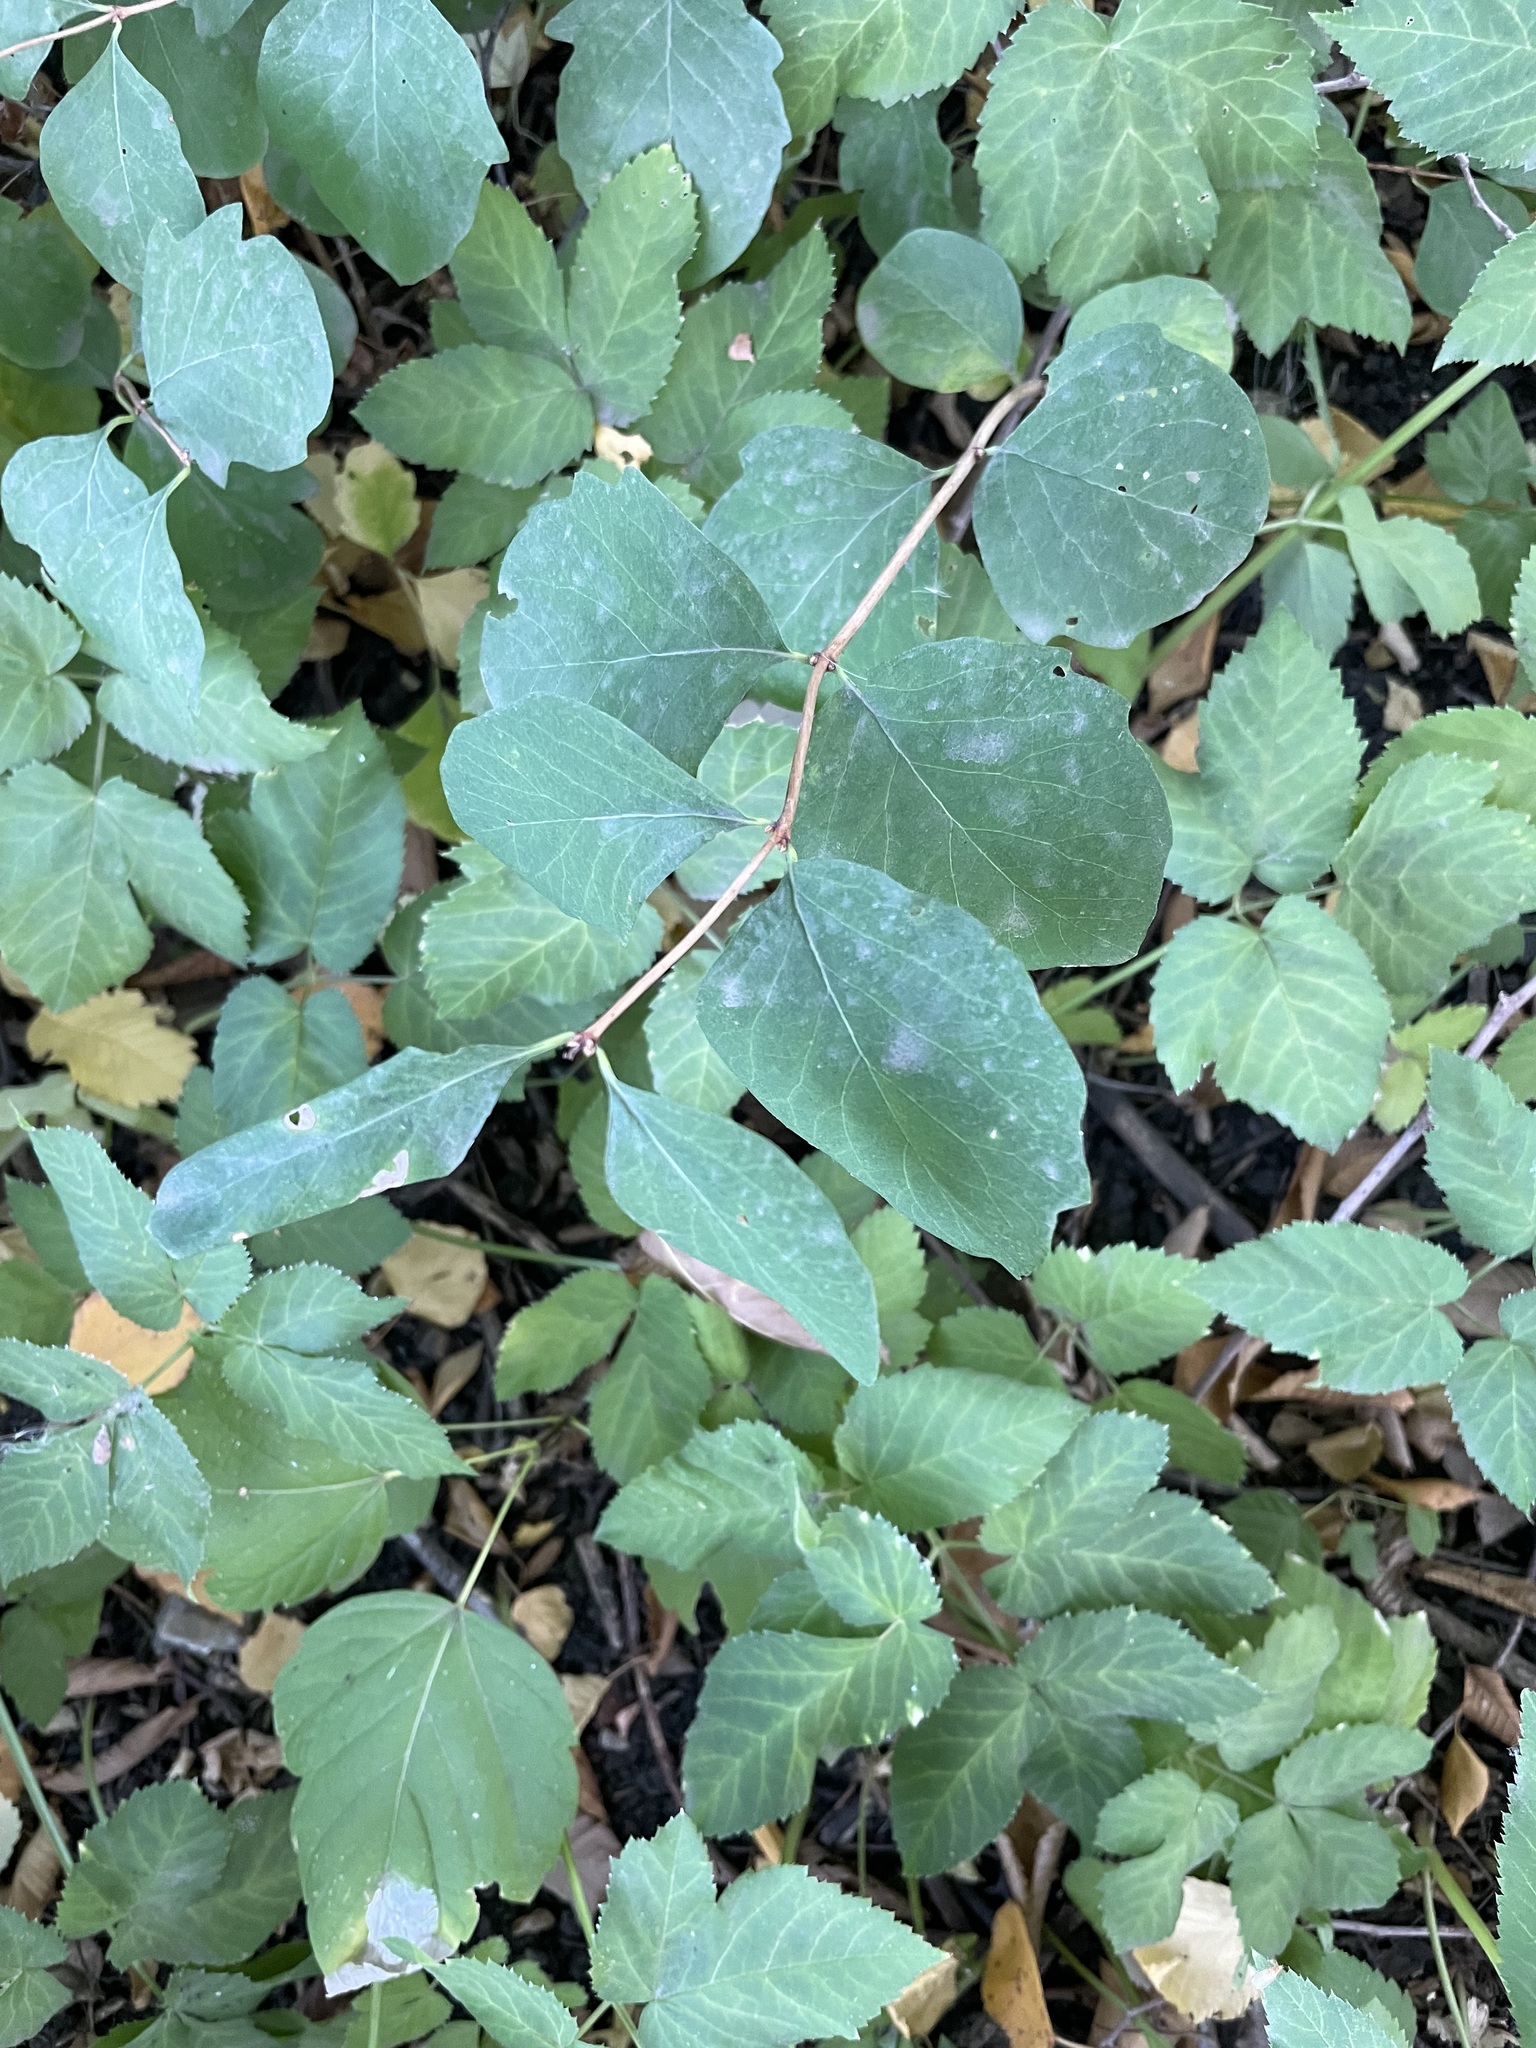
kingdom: Plantae
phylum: Tracheophyta
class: Magnoliopsida
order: Dipsacales
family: Caprifoliaceae
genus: Symphoricarpos
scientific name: Symphoricarpos albus
